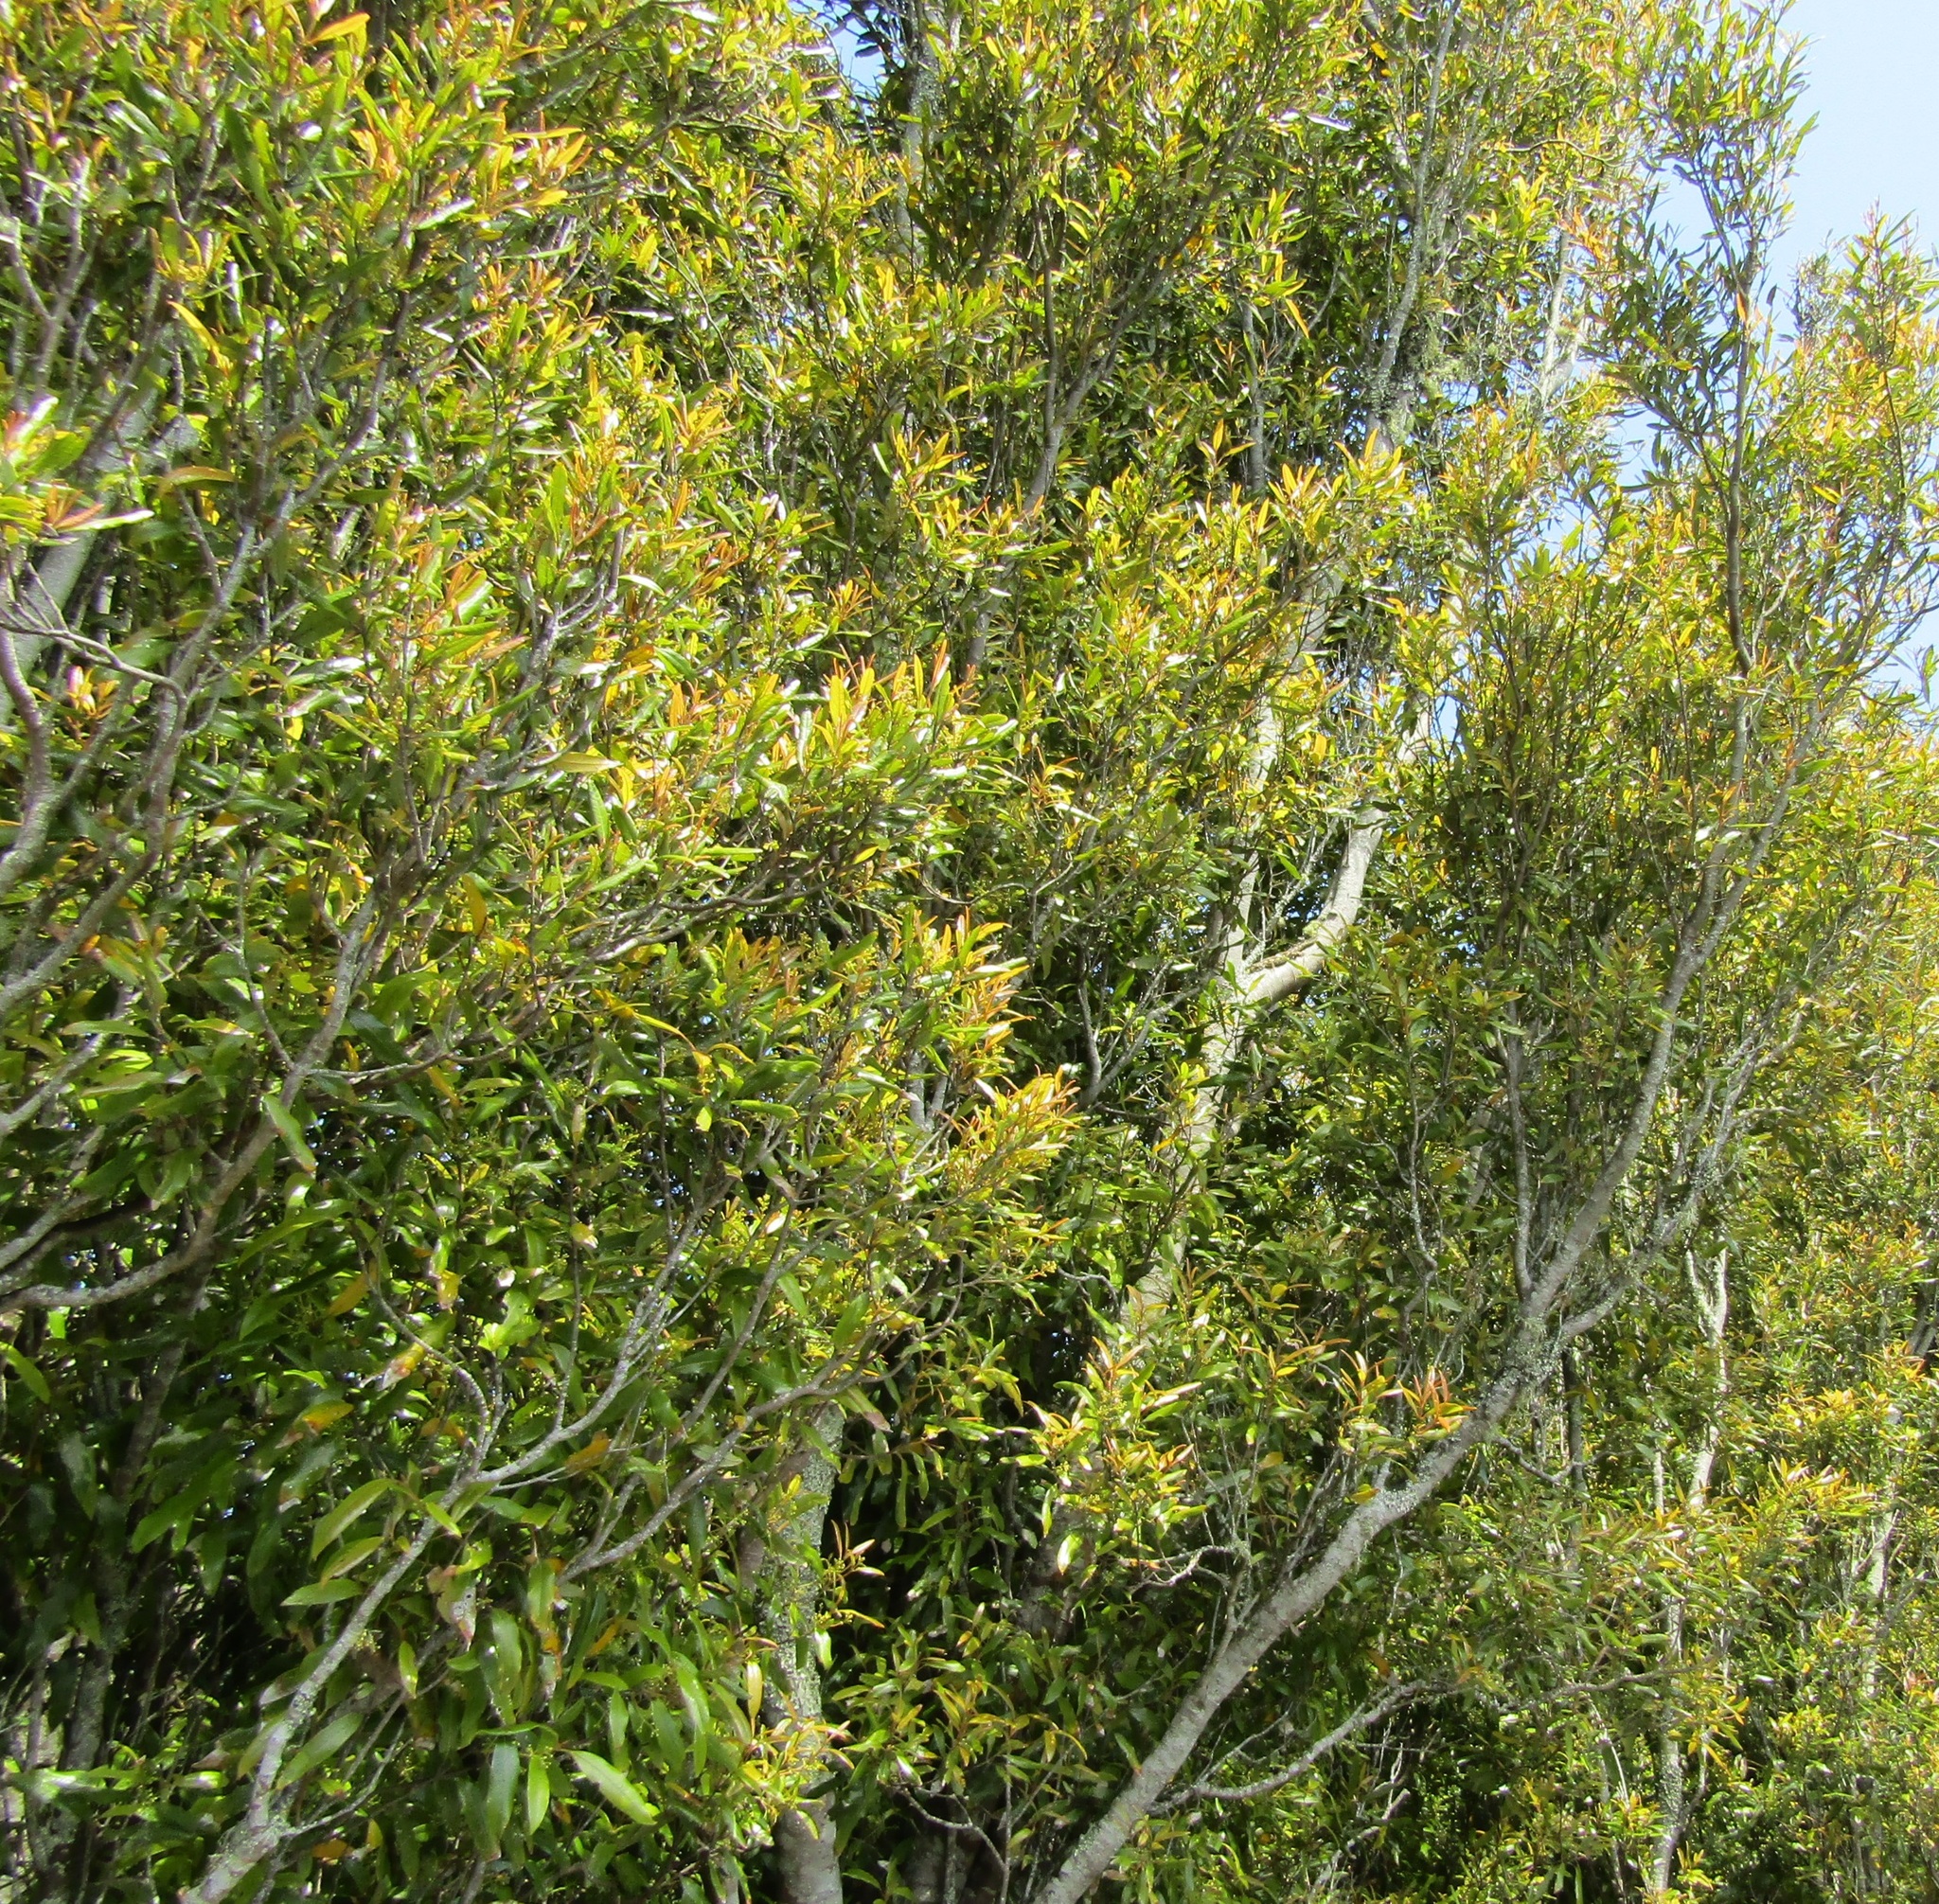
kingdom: Animalia
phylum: Chordata
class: Squamata
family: Diplodactylidae
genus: Mokopirirakau
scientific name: Mokopirirakau
